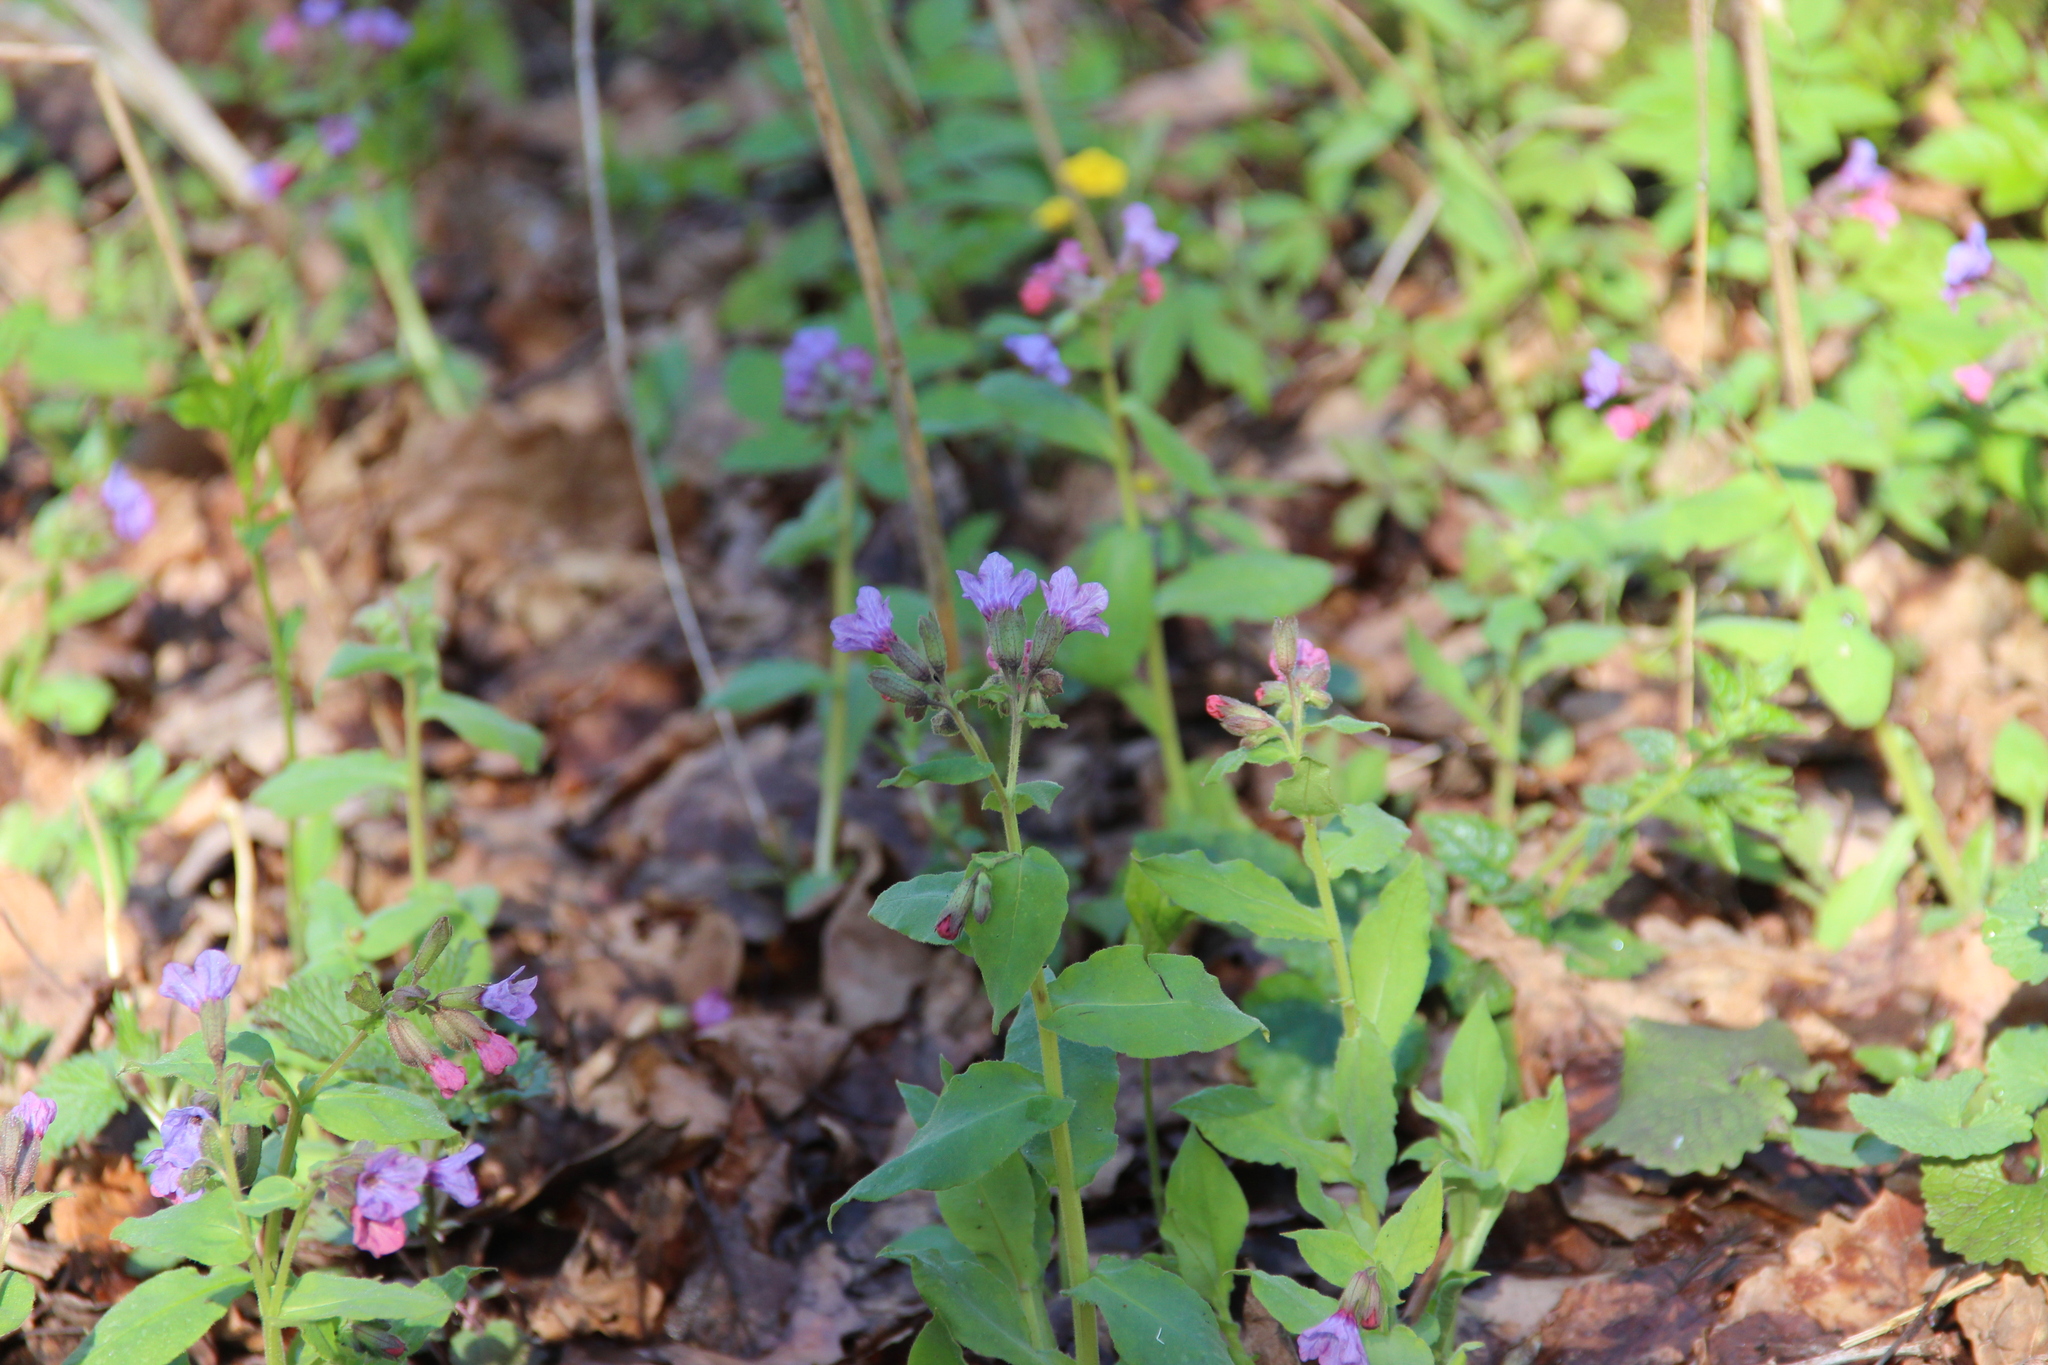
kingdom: Plantae
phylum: Tracheophyta
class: Magnoliopsida
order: Boraginales
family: Boraginaceae
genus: Pulmonaria
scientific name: Pulmonaria obscura
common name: Suffolk lungwort
